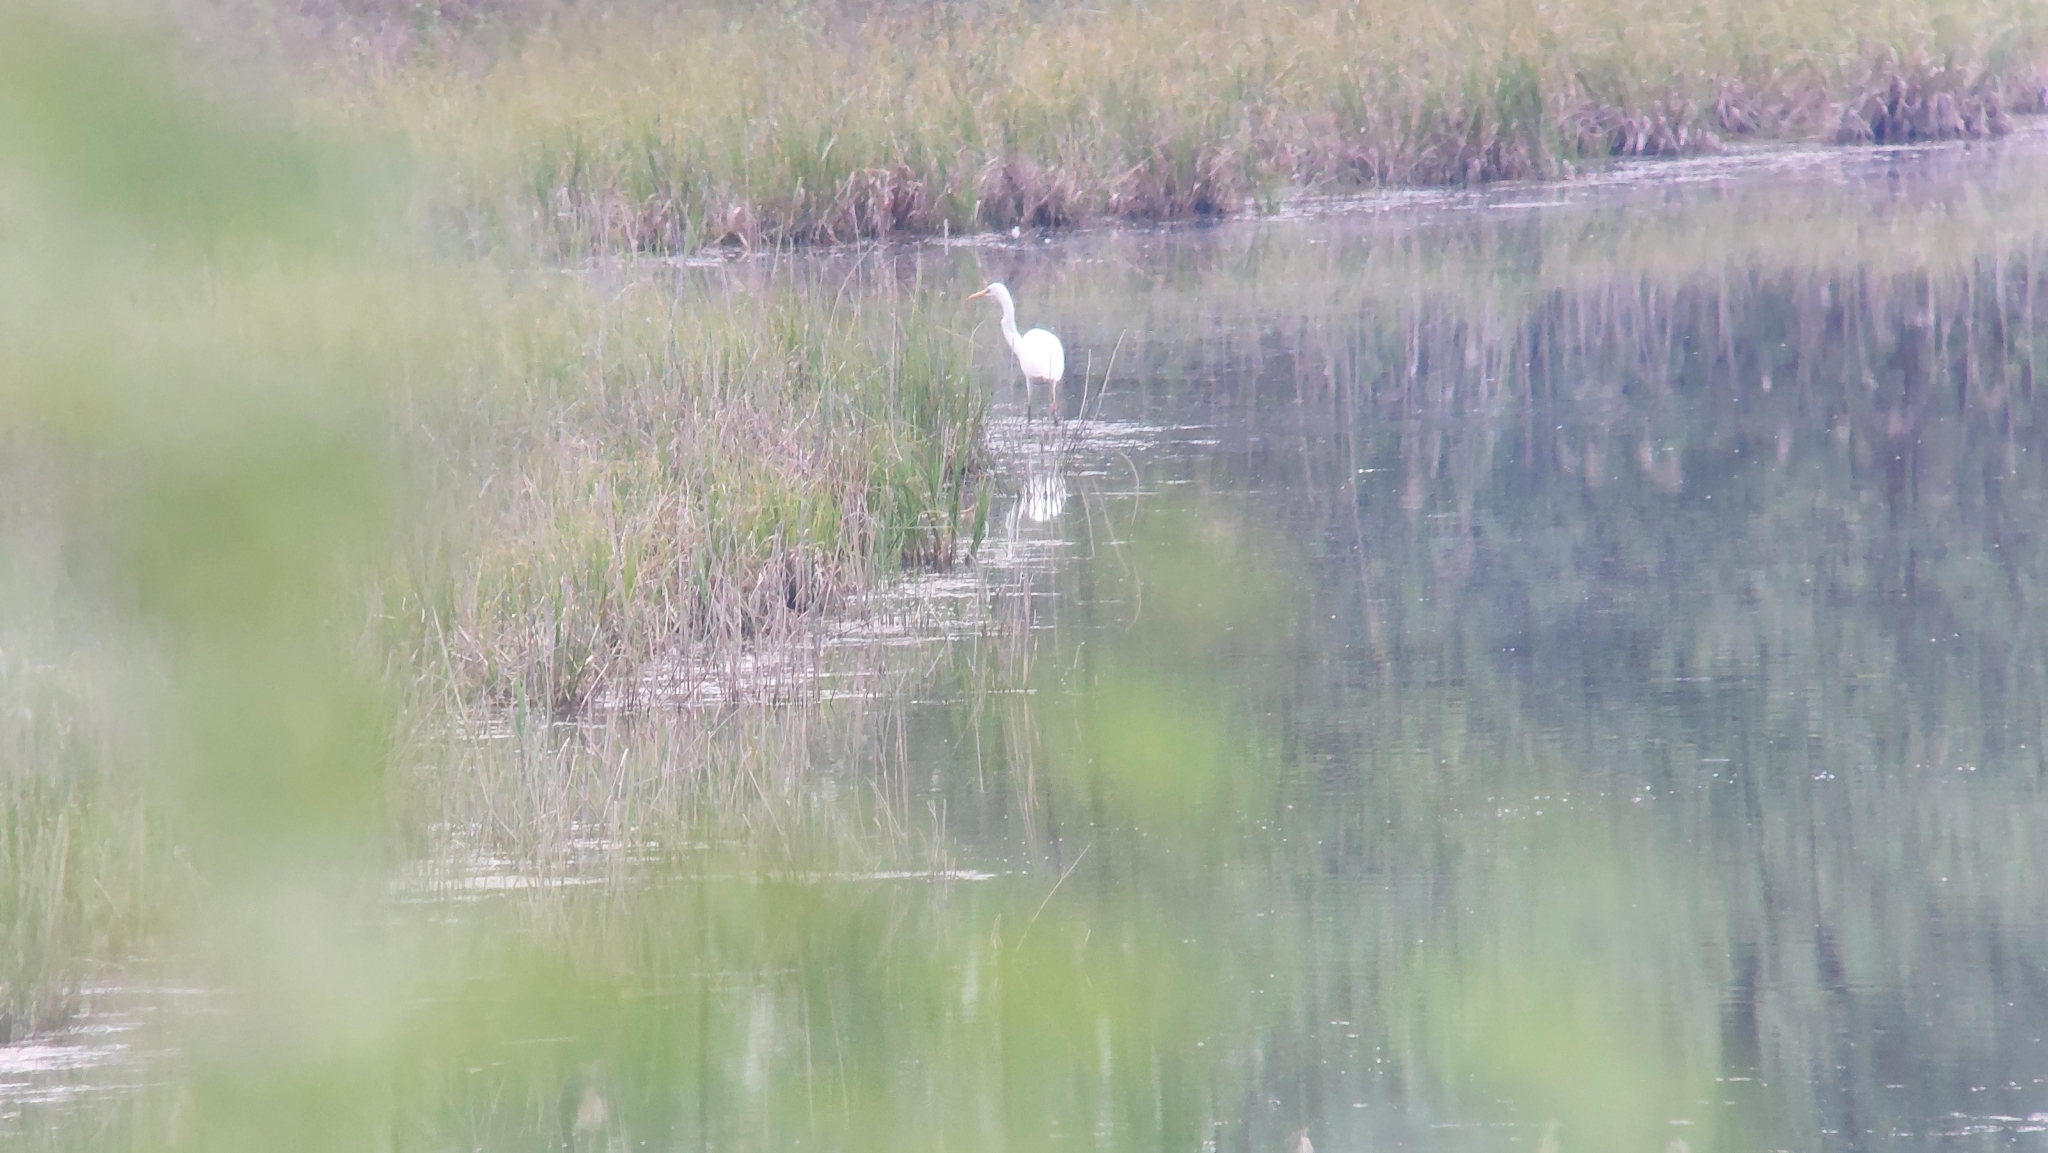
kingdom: Animalia
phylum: Chordata
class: Aves
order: Pelecaniformes
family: Ardeidae
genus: Ardea
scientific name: Ardea alba
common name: Great egret
